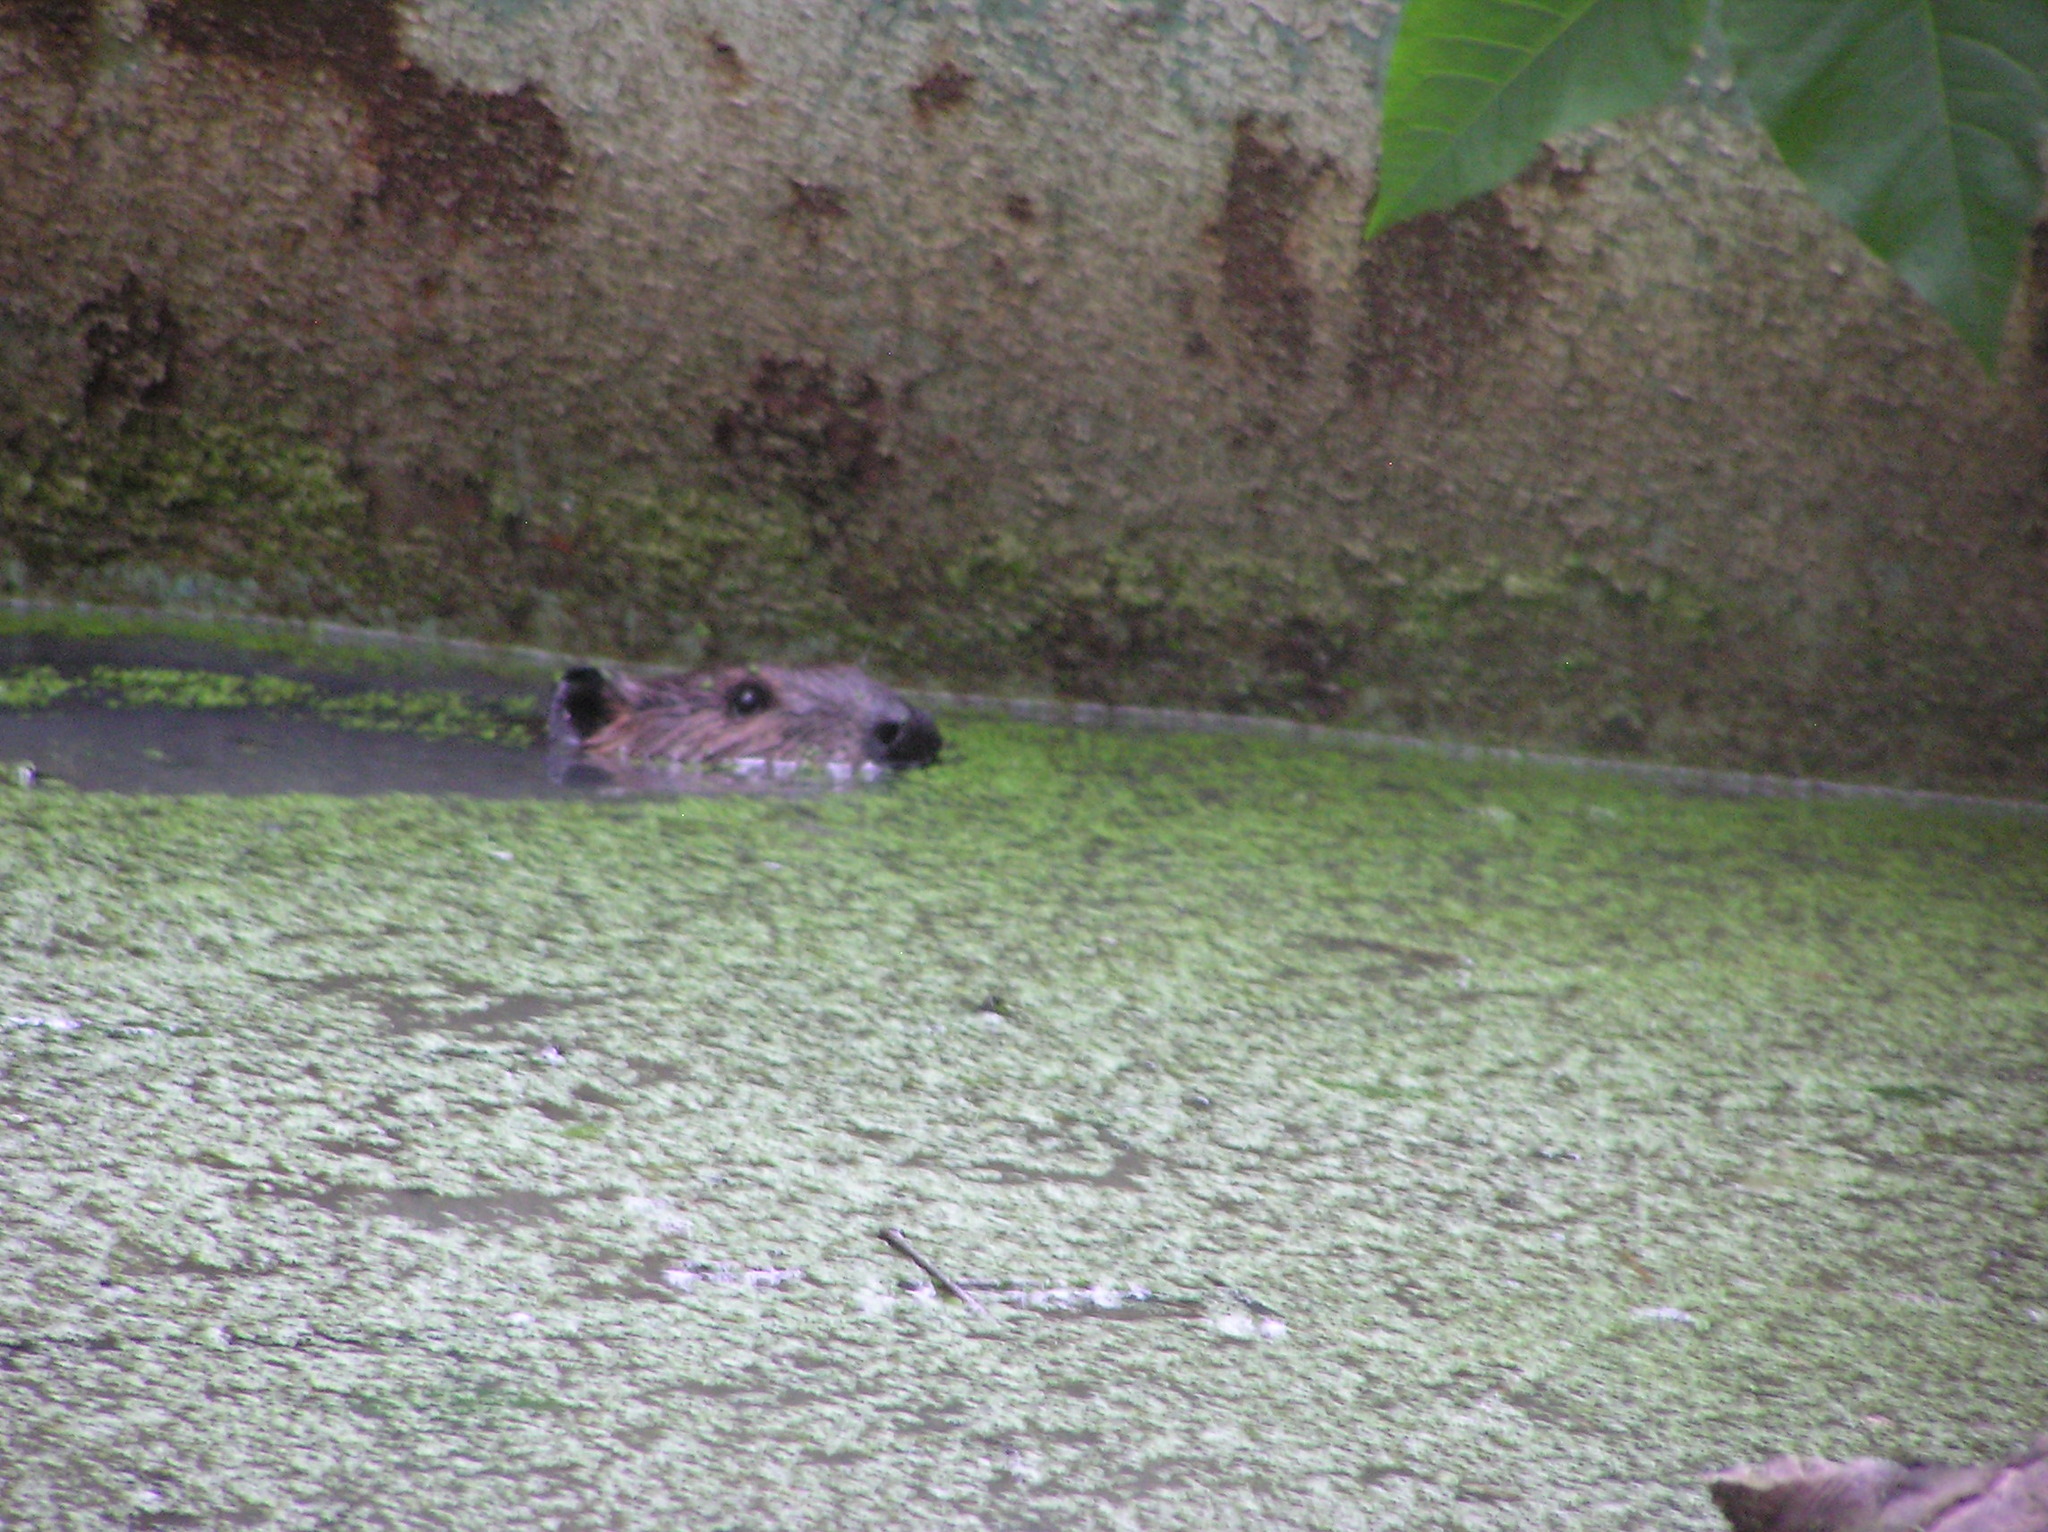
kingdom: Animalia
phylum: Chordata
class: Mammalia
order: Rodentia
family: Castoridae
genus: Castor
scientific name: Castor canadensis
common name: American beaver
